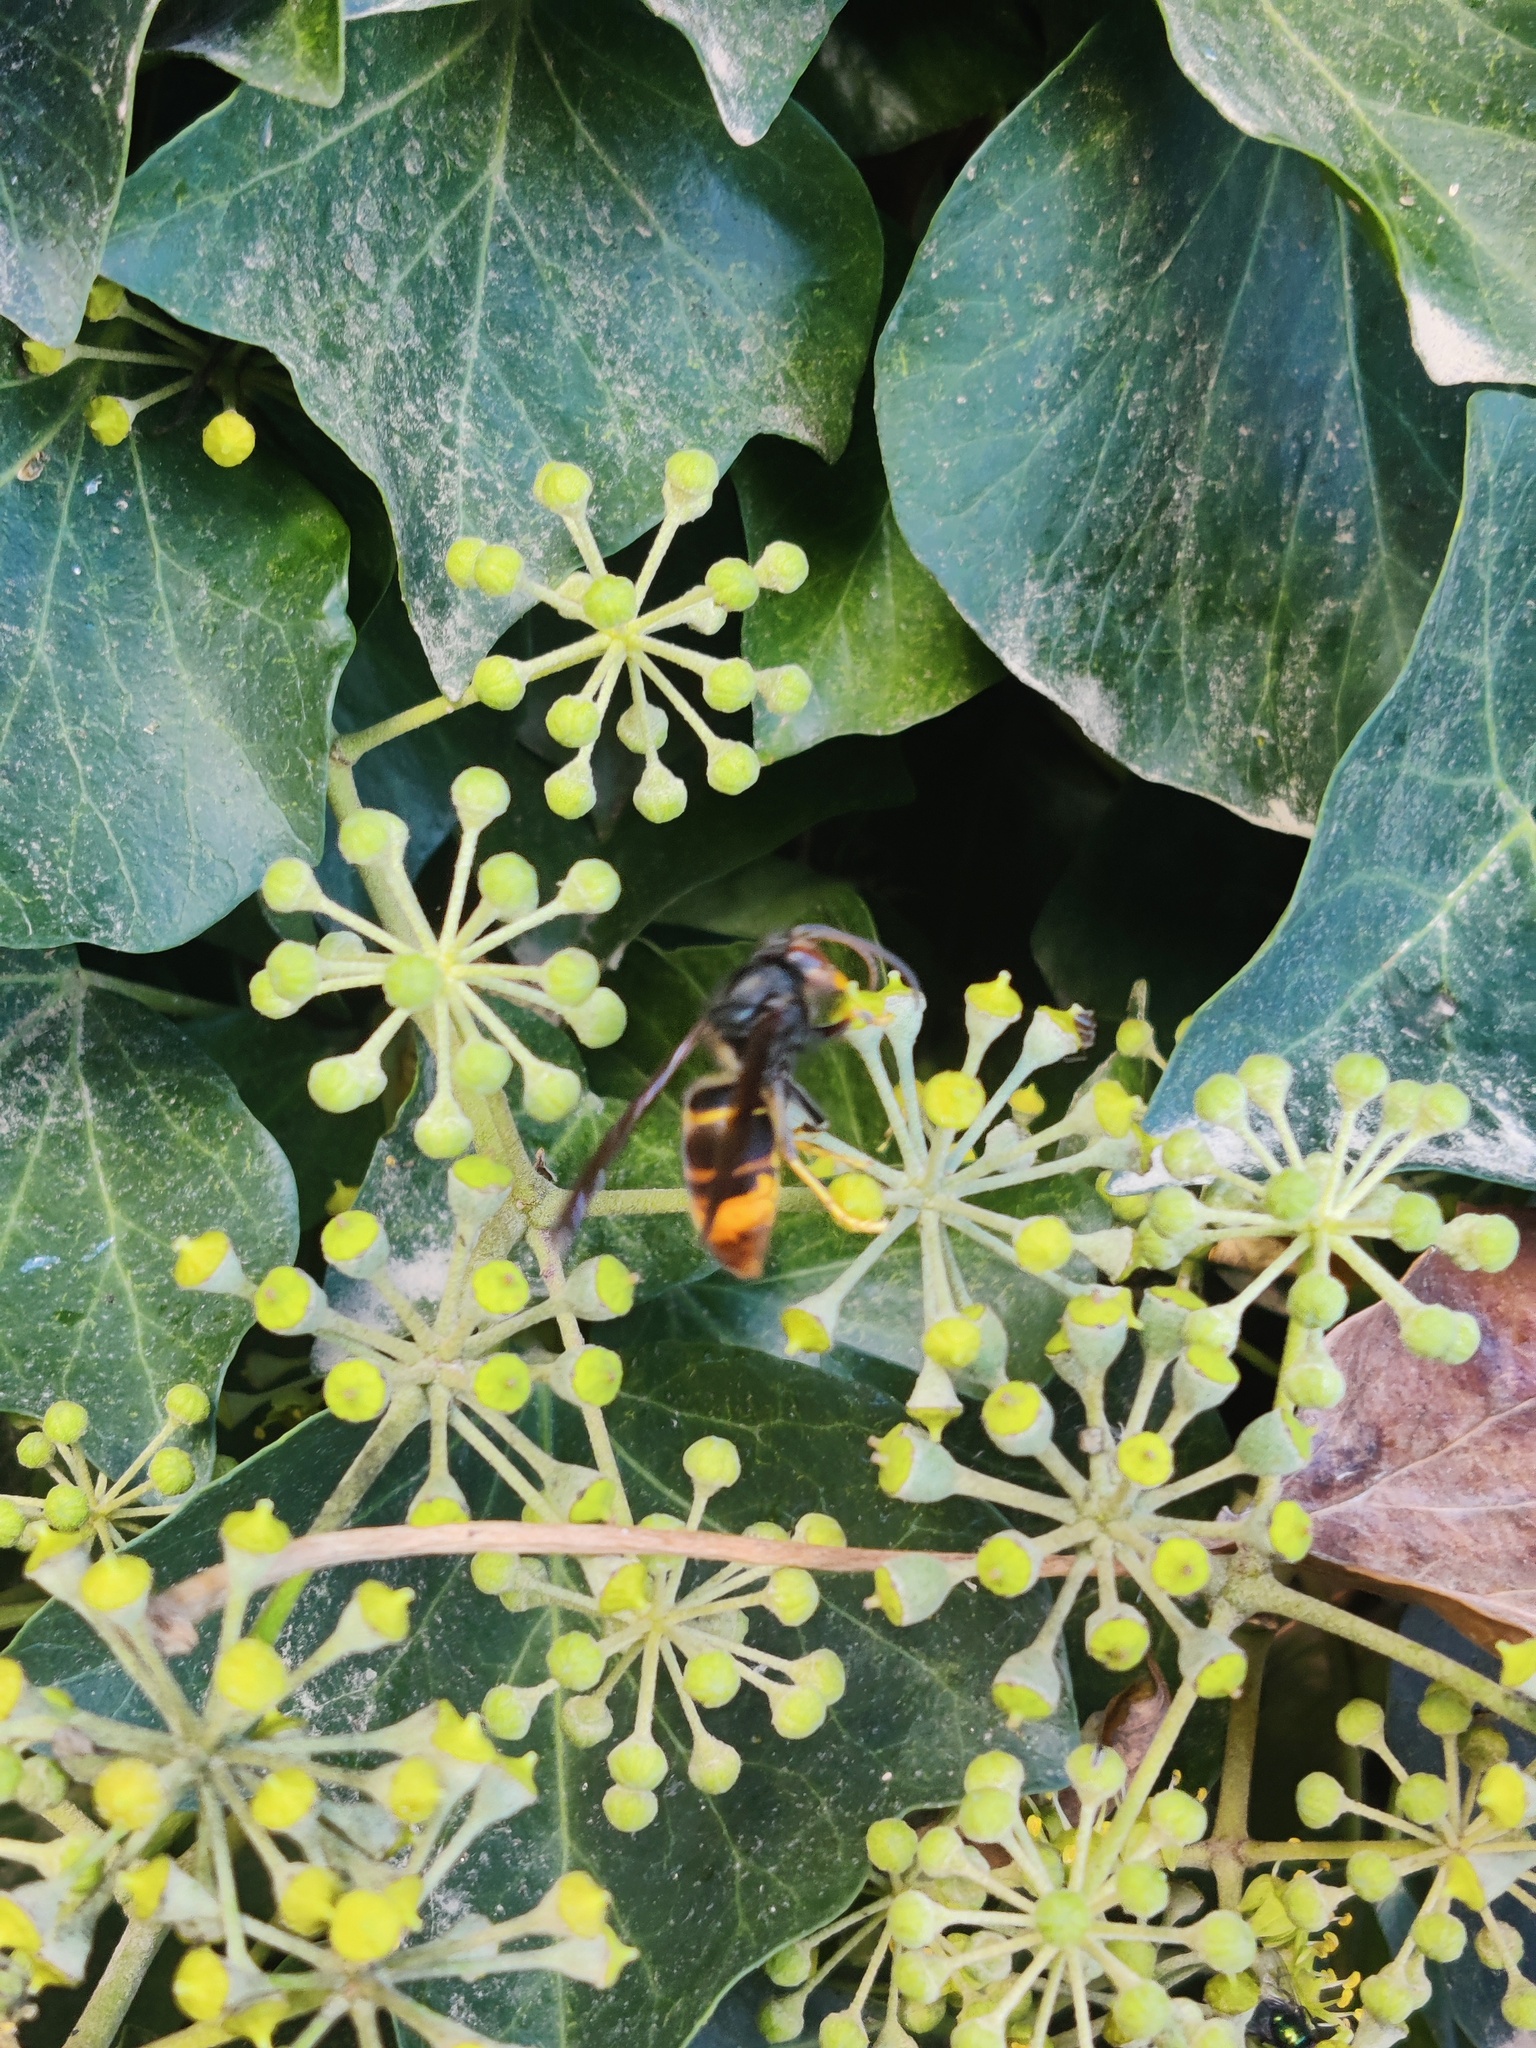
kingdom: Animalia
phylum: Arthropoda
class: Insecta
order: Hymenoptera
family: Vespidae
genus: Vespa
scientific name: Vespa velutina
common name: Asian hornet
